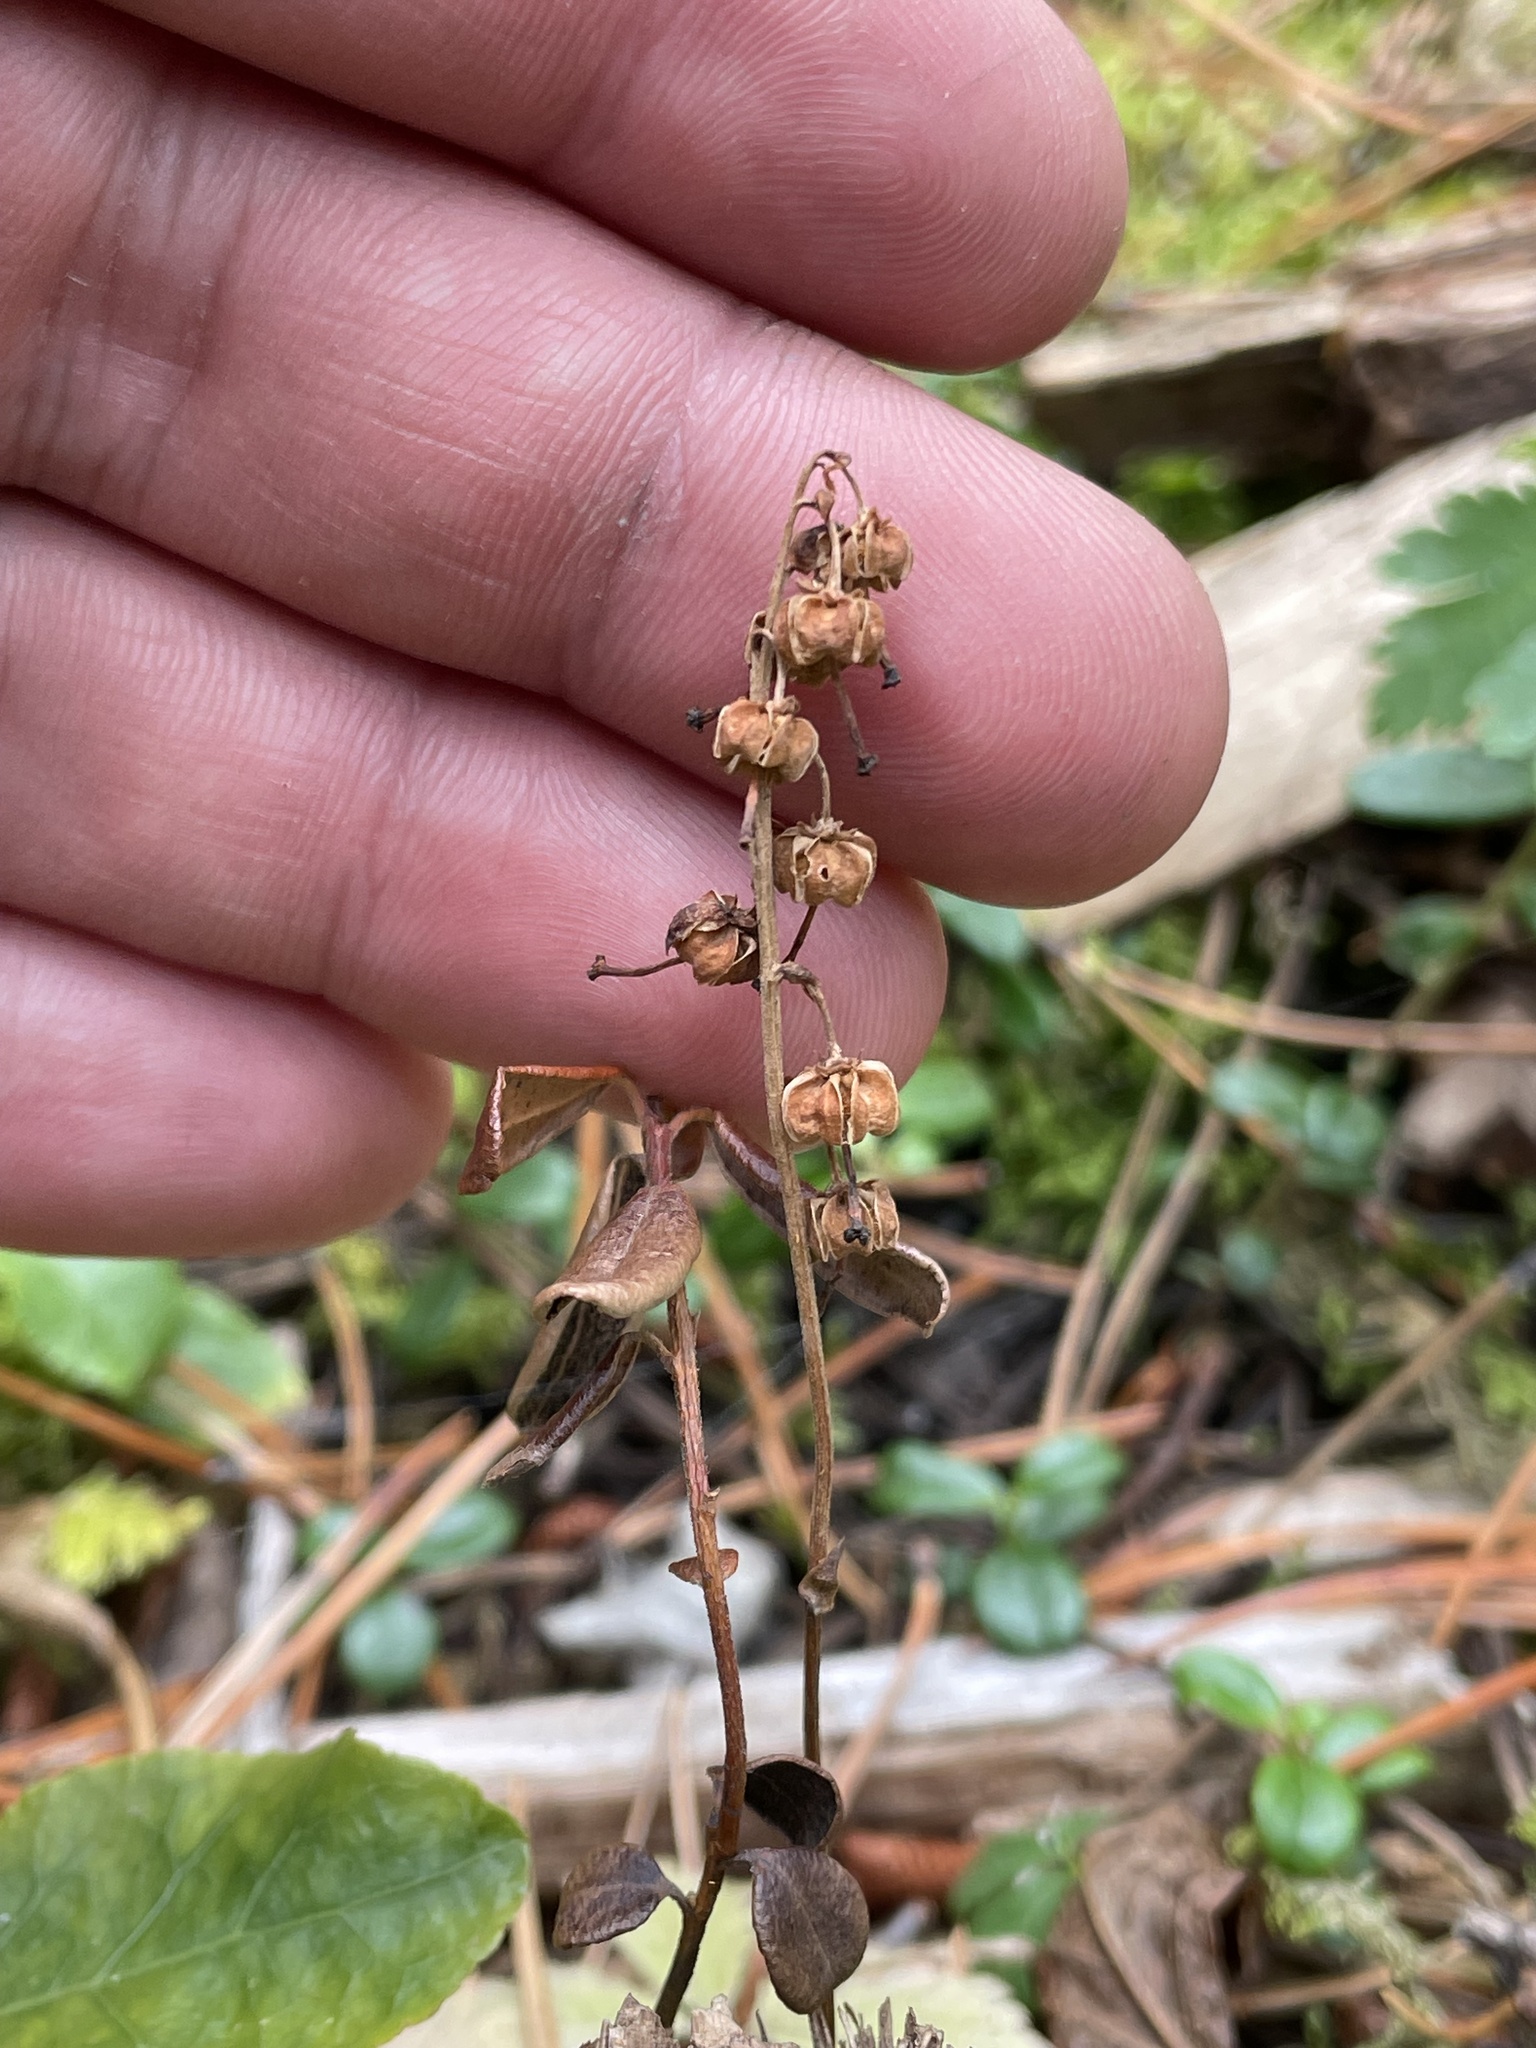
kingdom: Plantae
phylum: Tracheophyta
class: Magnoliopsida
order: Ericales
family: Ericaceae
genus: Orthilia
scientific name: Orthilia secunda
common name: One-sided orthilia
